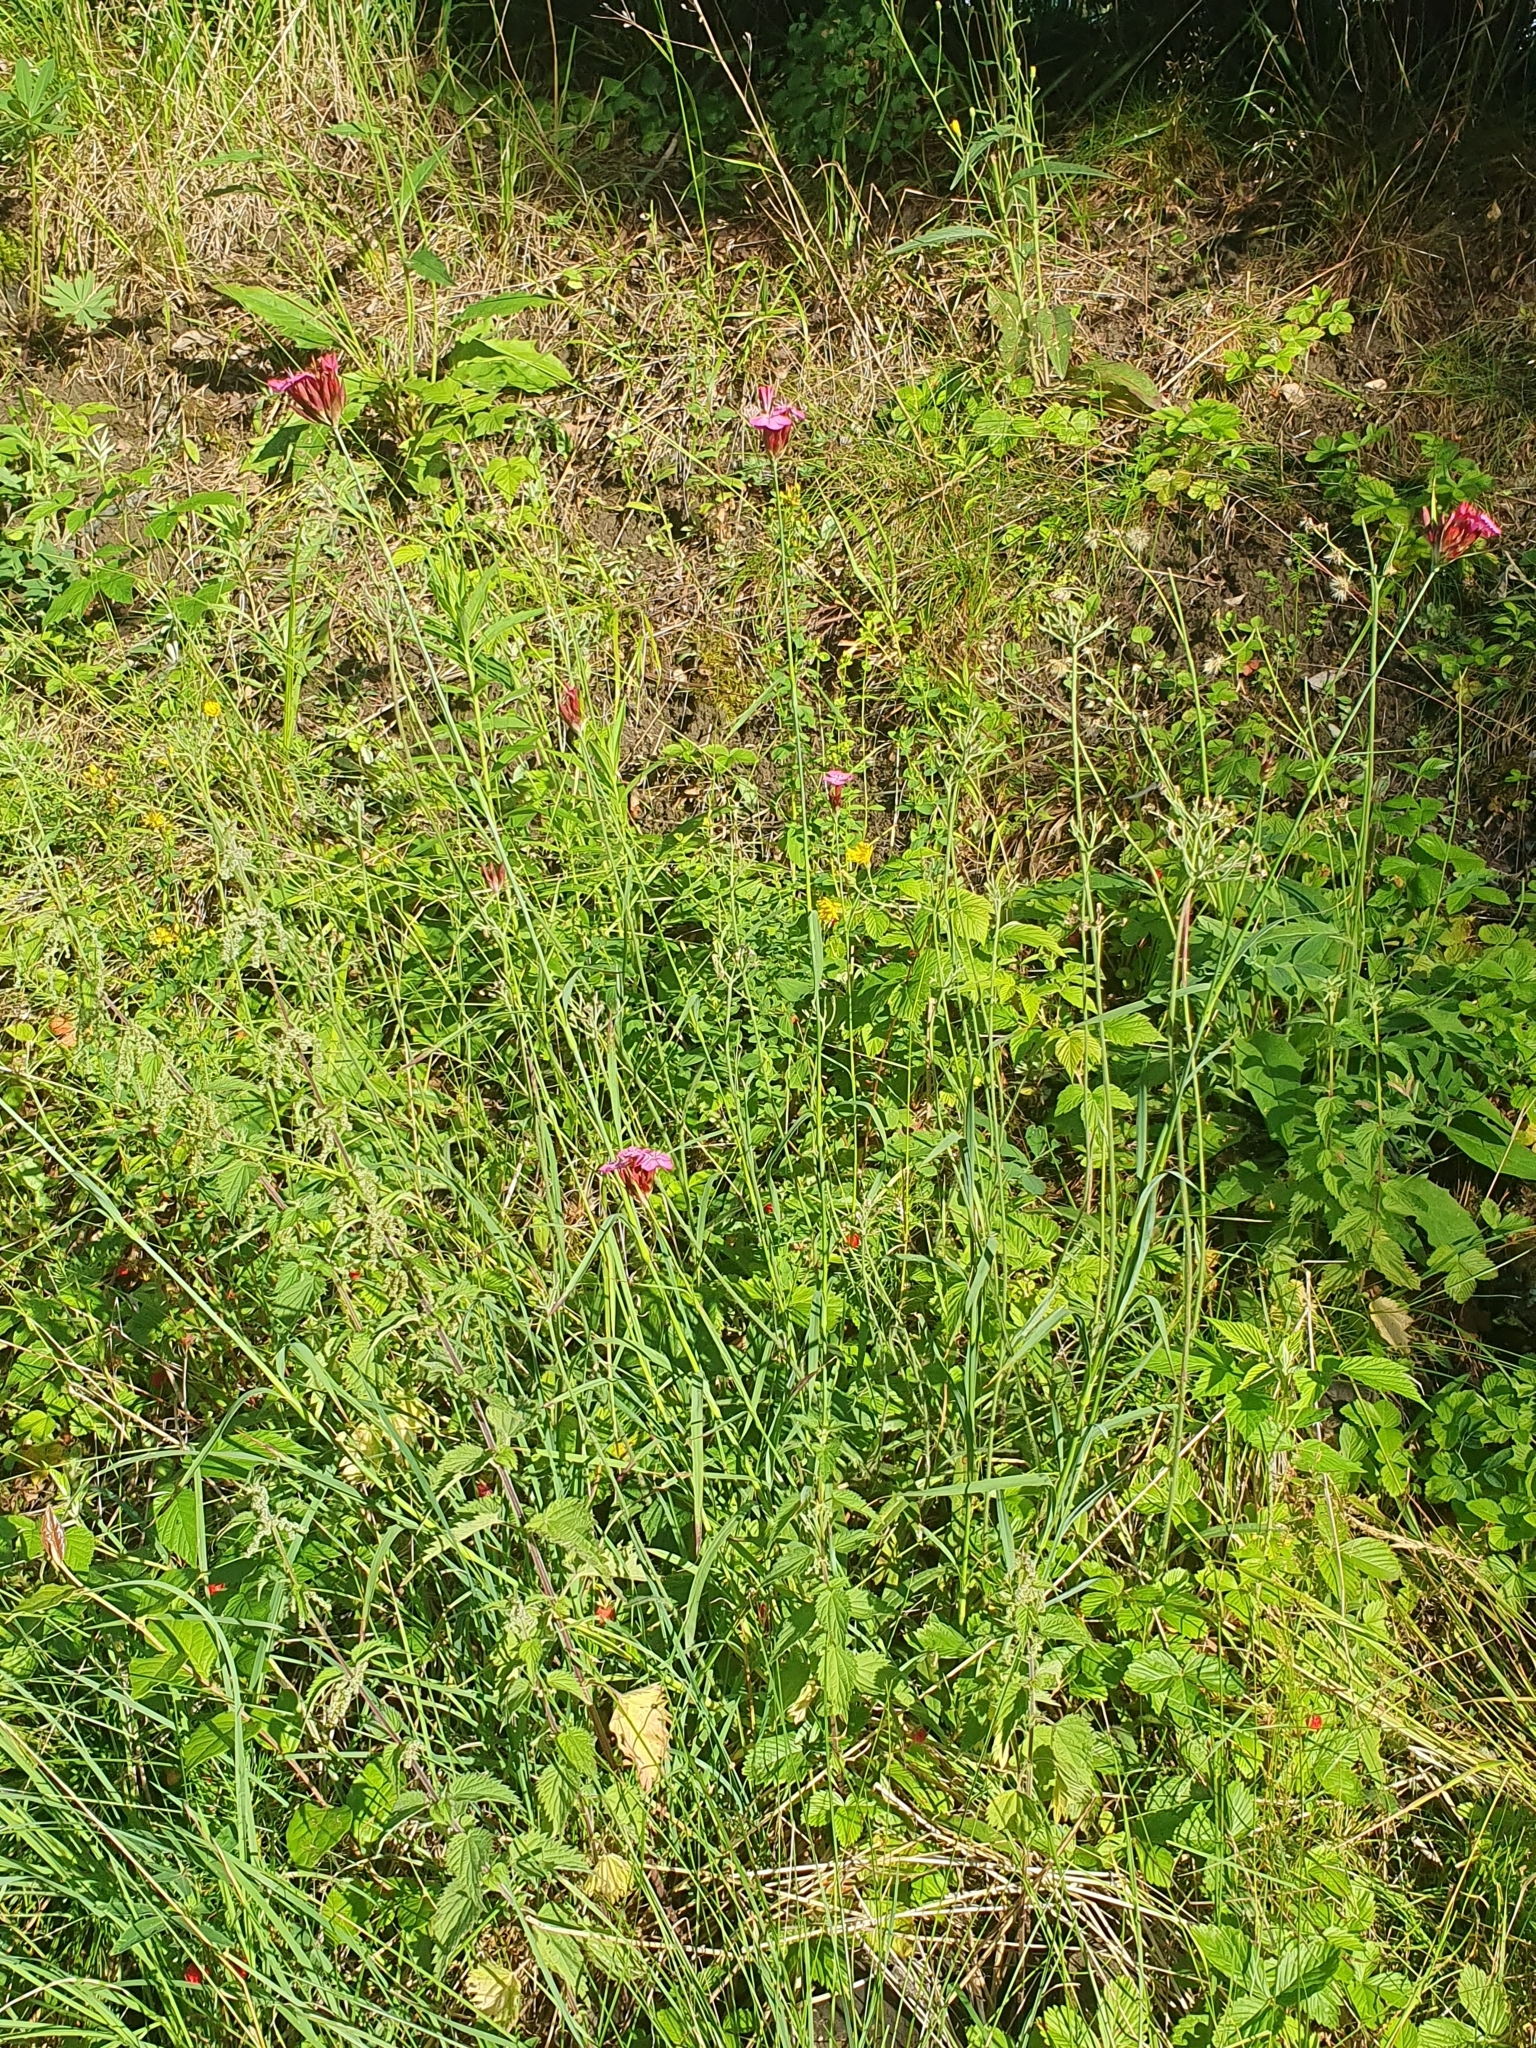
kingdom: Plantae
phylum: Tracheophyta
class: Magnoliopsida
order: Caryophyllales
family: Caryophyllaceae
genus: Dianthus
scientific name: Dianthus giganteus
